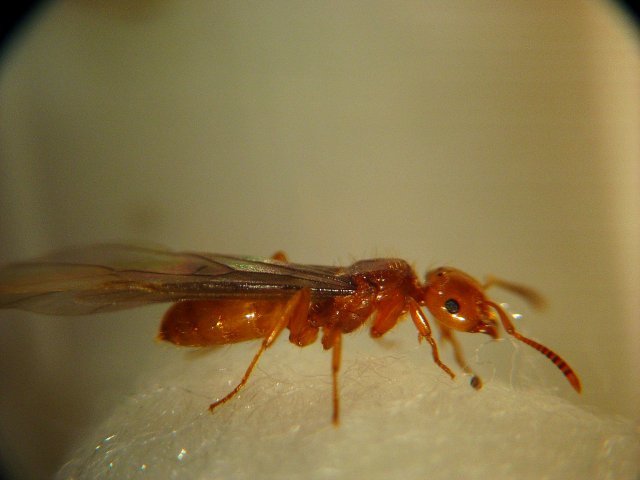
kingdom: Animalia
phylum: Arthropoda
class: Insecta
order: Hymenoptera
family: Formicidae
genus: Lasius
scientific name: Lasius californicus
